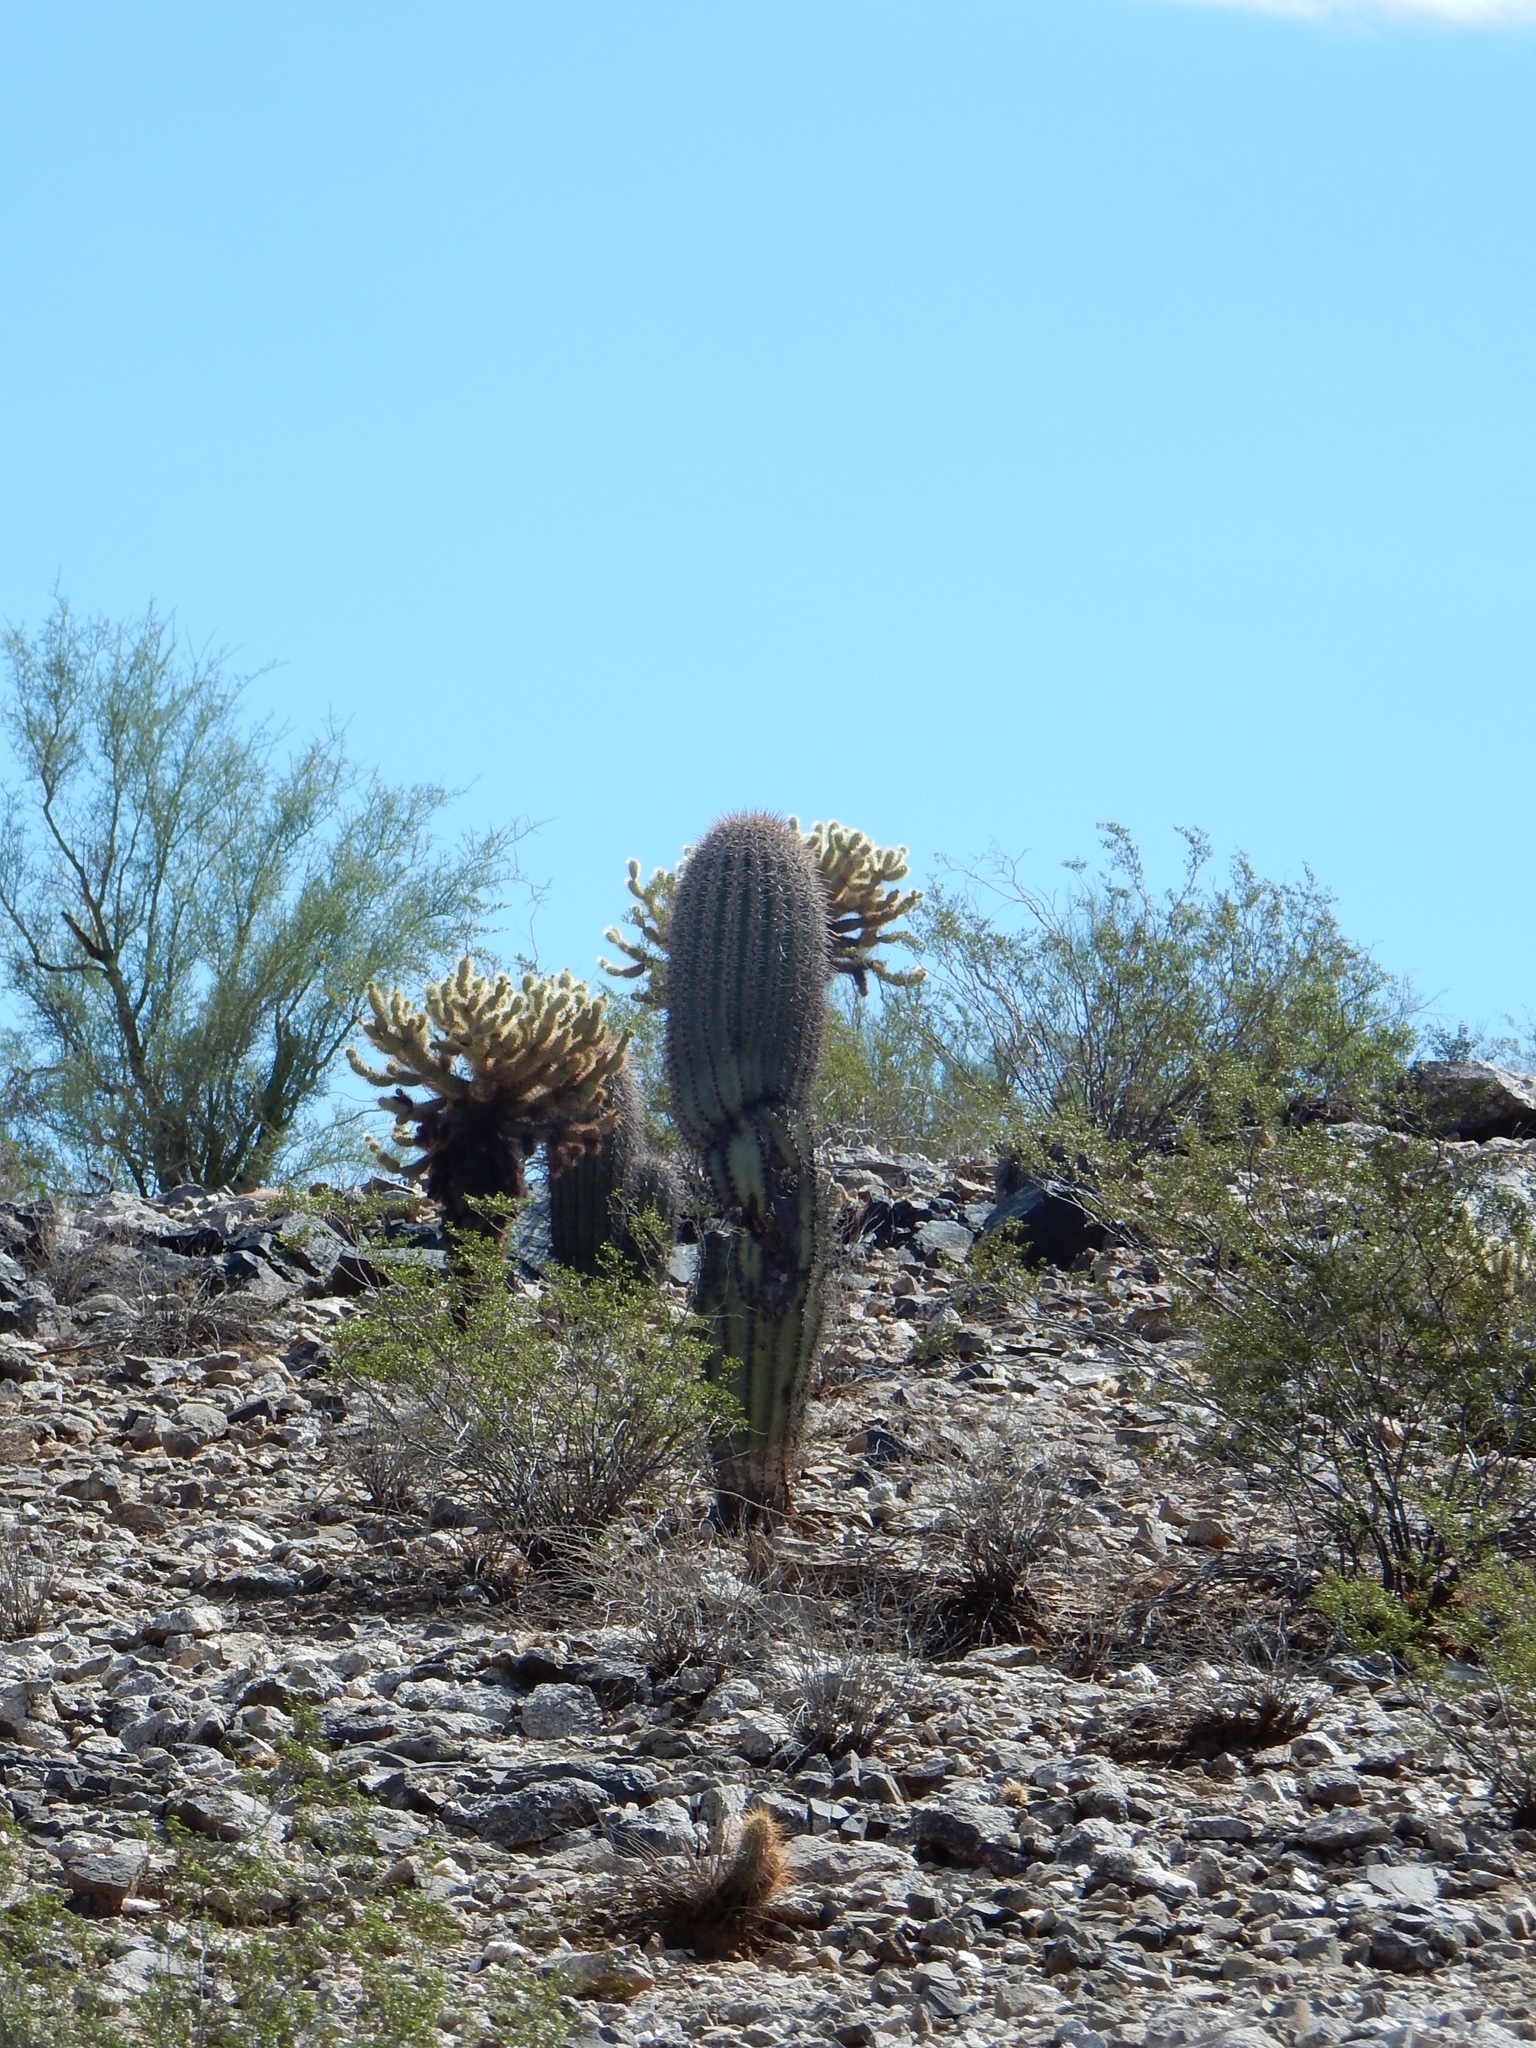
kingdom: Plantae
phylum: Tracheophyta
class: Magnoliopsida
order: Caryophyllales
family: Cactaceae
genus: Carnegiea
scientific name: Carnegiea gigantea
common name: Saguaro
